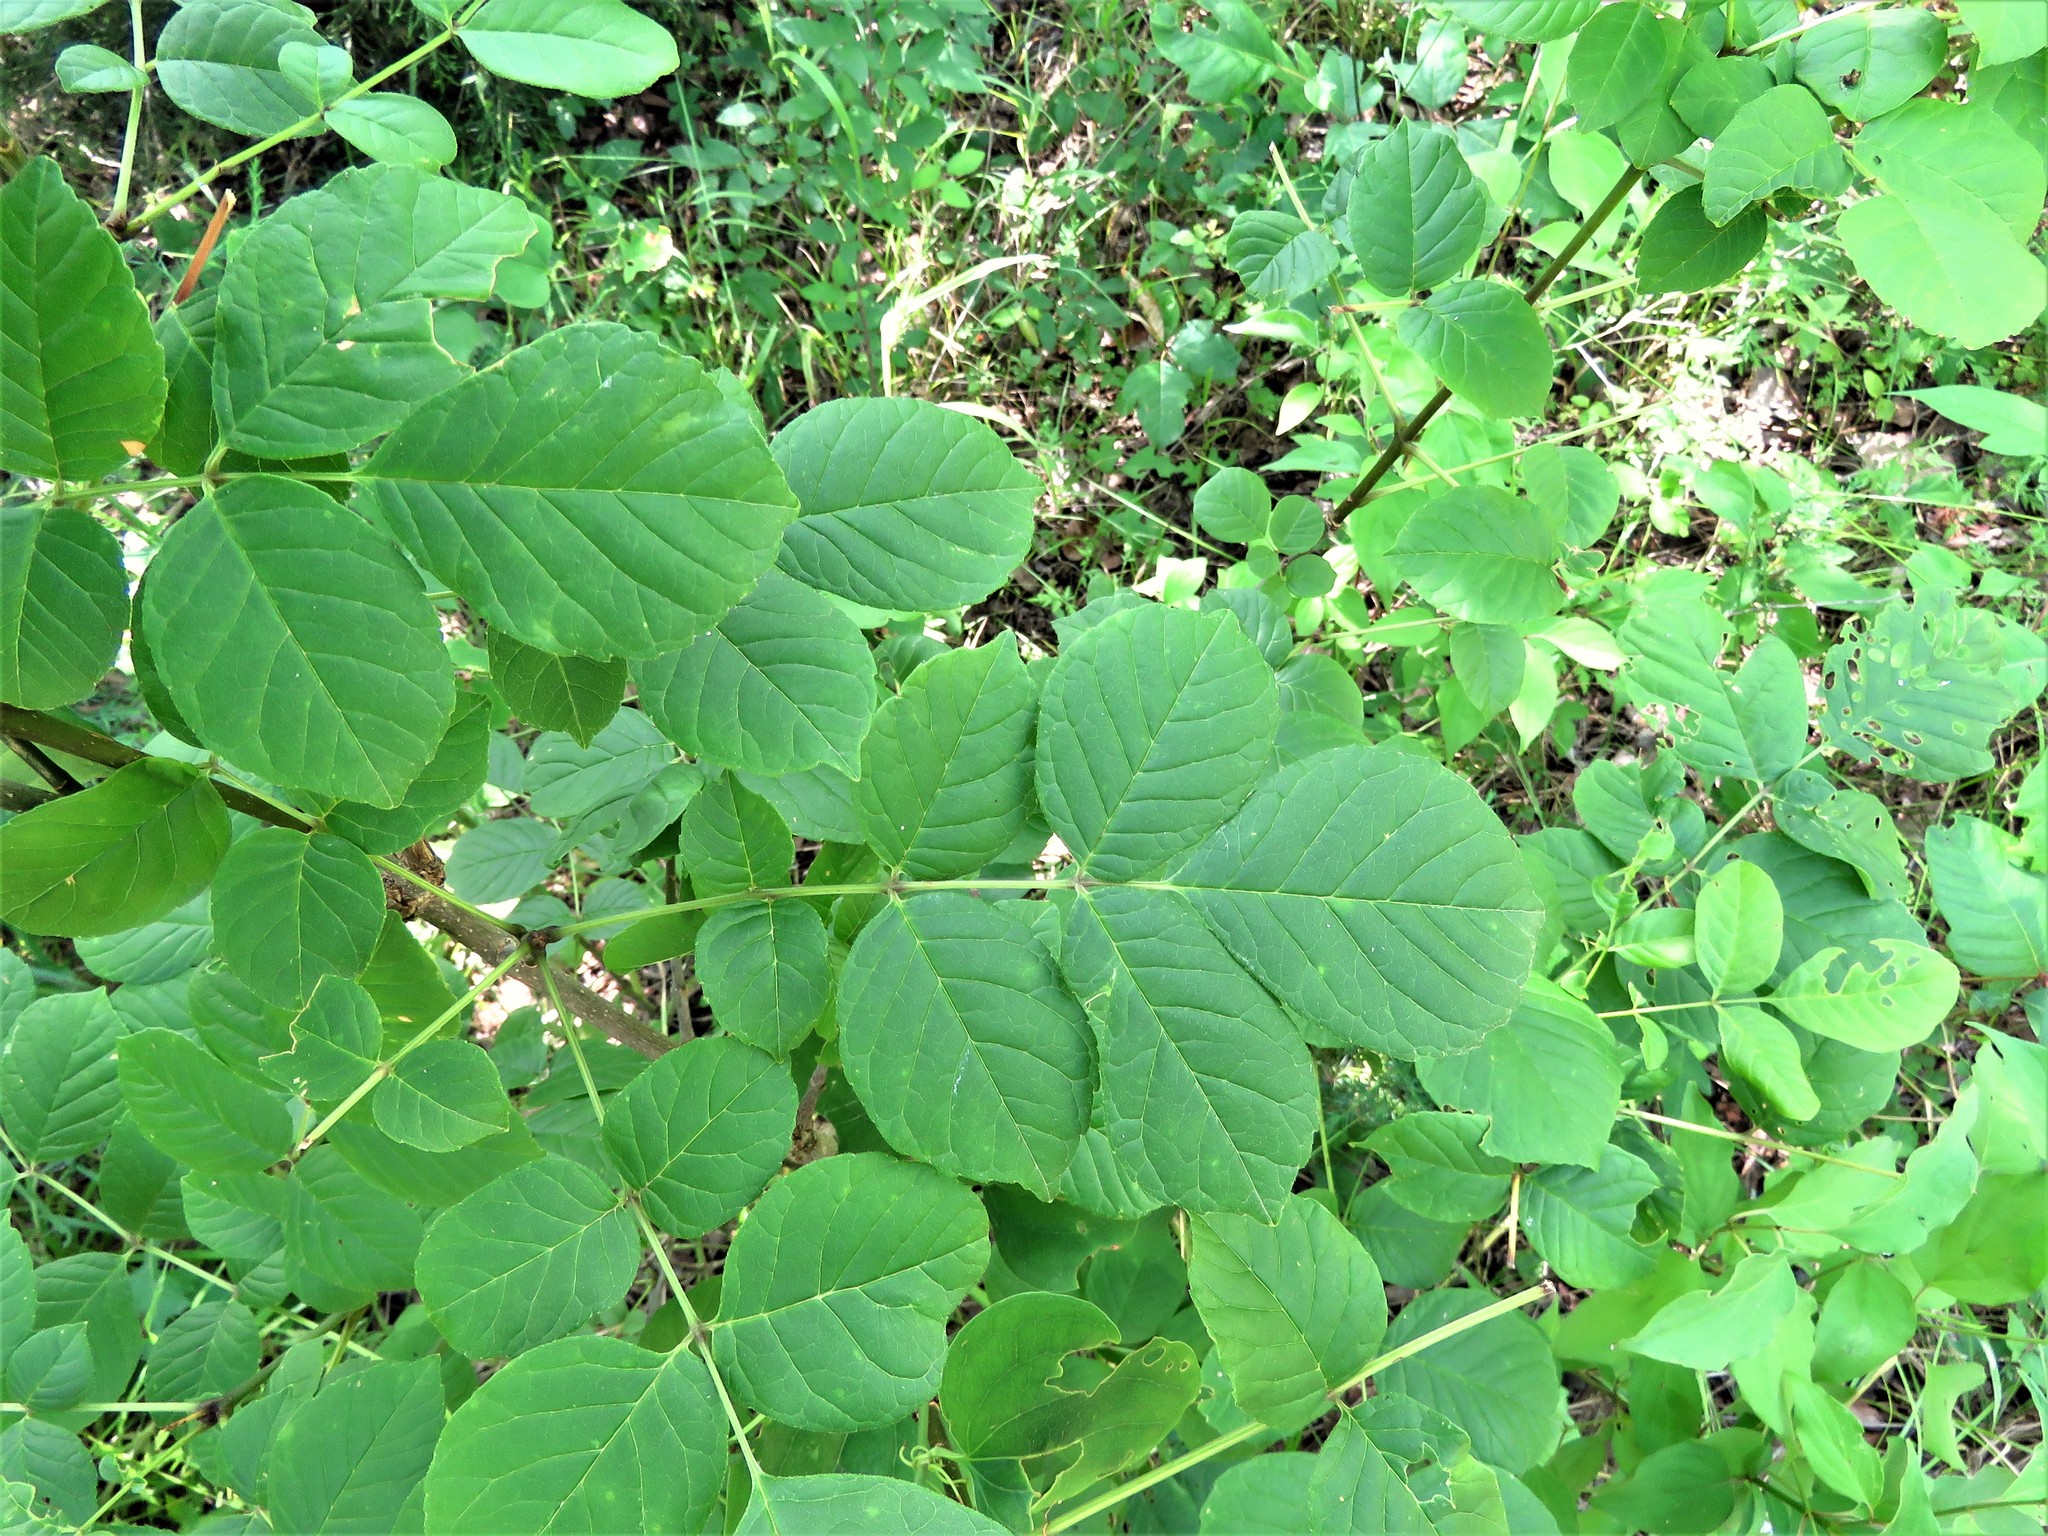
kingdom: Plantae
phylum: Tracheophyta
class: Magnoliopsida
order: Lamiales
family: Oleaceae
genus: Fraxinus
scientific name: Fraxinus albicans
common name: Texas ash
